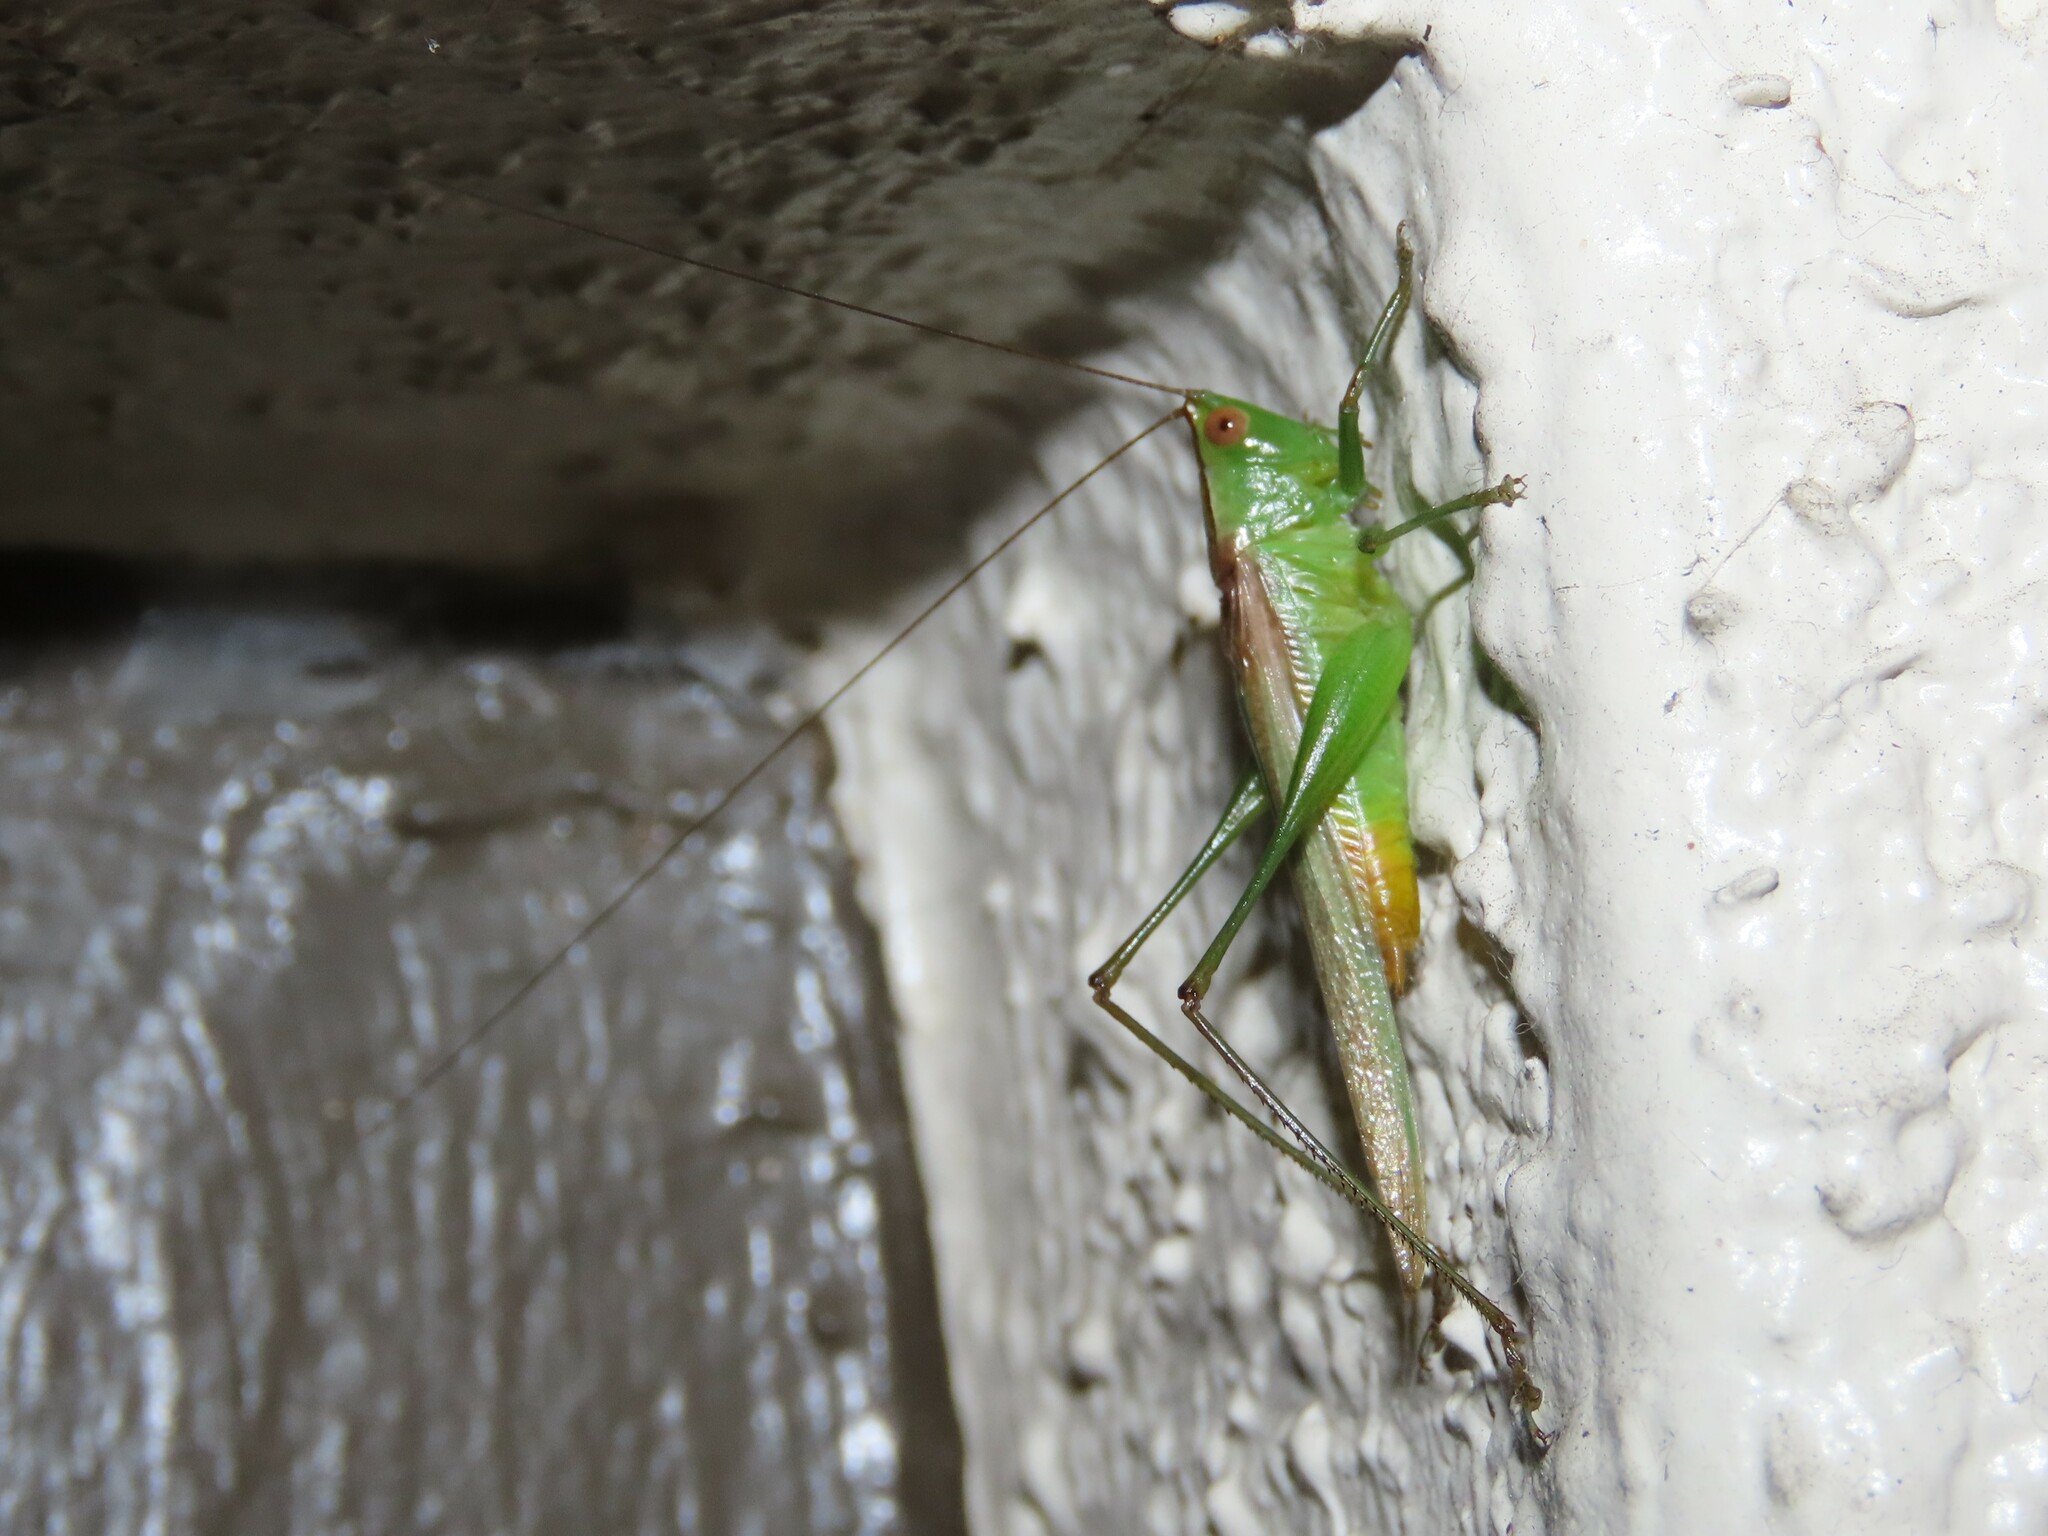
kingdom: Animalia
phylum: Arthropoda
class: Insecta
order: Orthoptera
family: Tettigoniidae
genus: Conocephalus
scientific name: Conocephalus cinereus
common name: Caribbean meadow katydid
